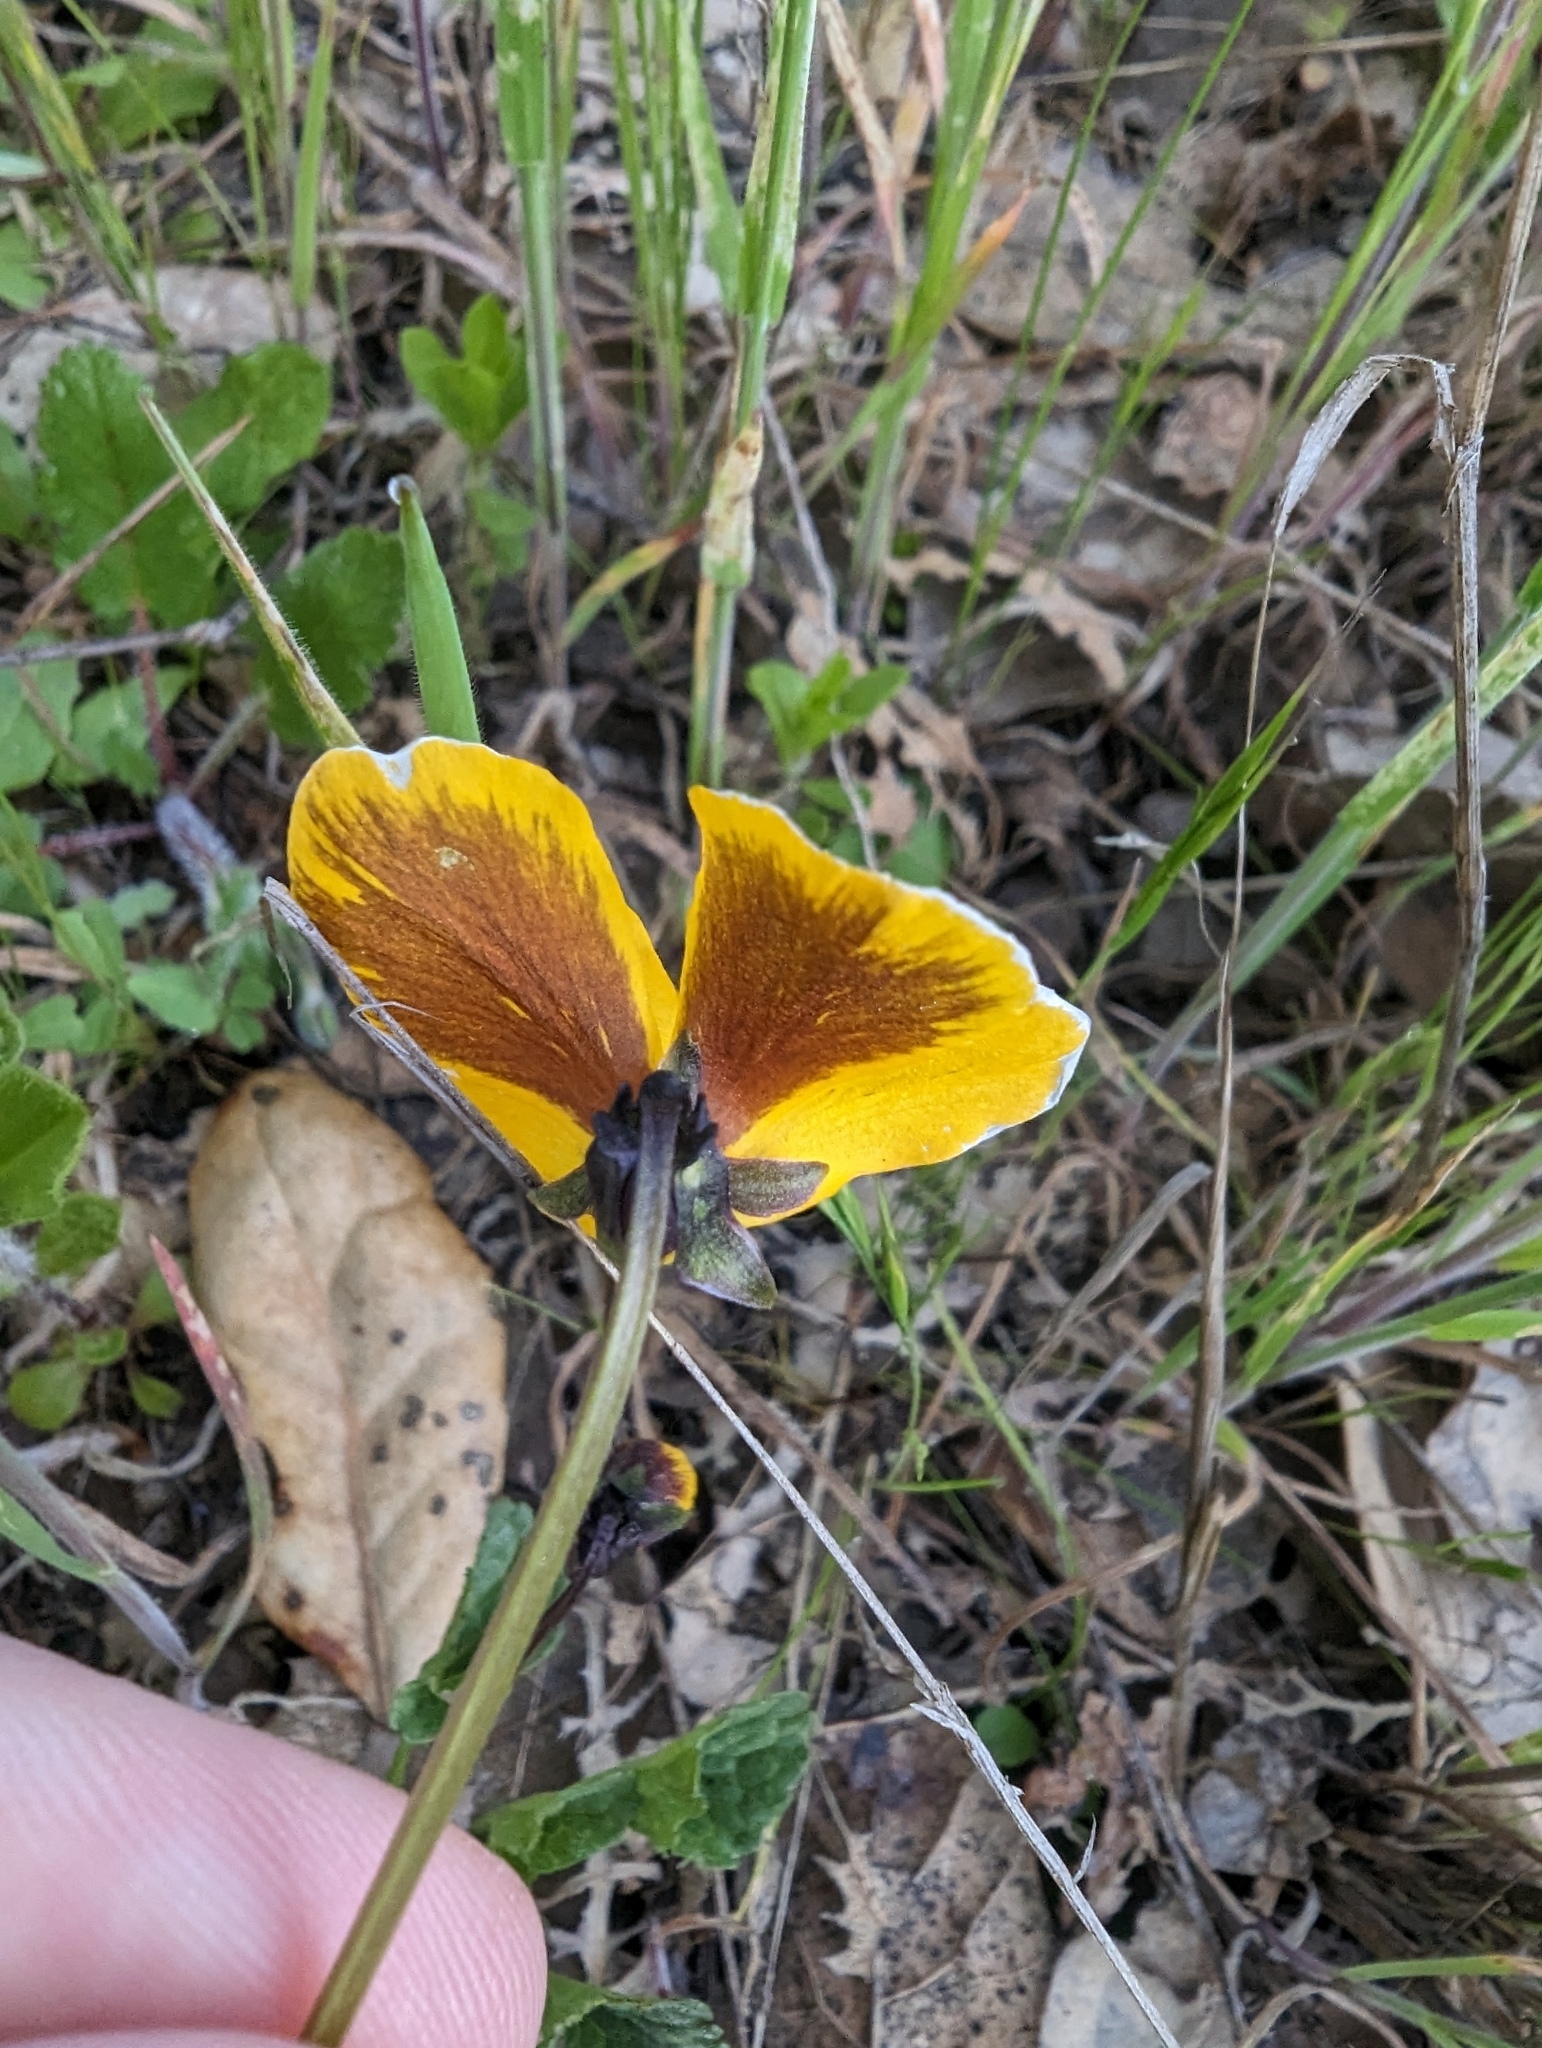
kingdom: Plantae
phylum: Tracheophyta
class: Magnoliopsida
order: Malpighiales
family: Violaceae
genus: Viola
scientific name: Viola pedunculata
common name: California golden violet
